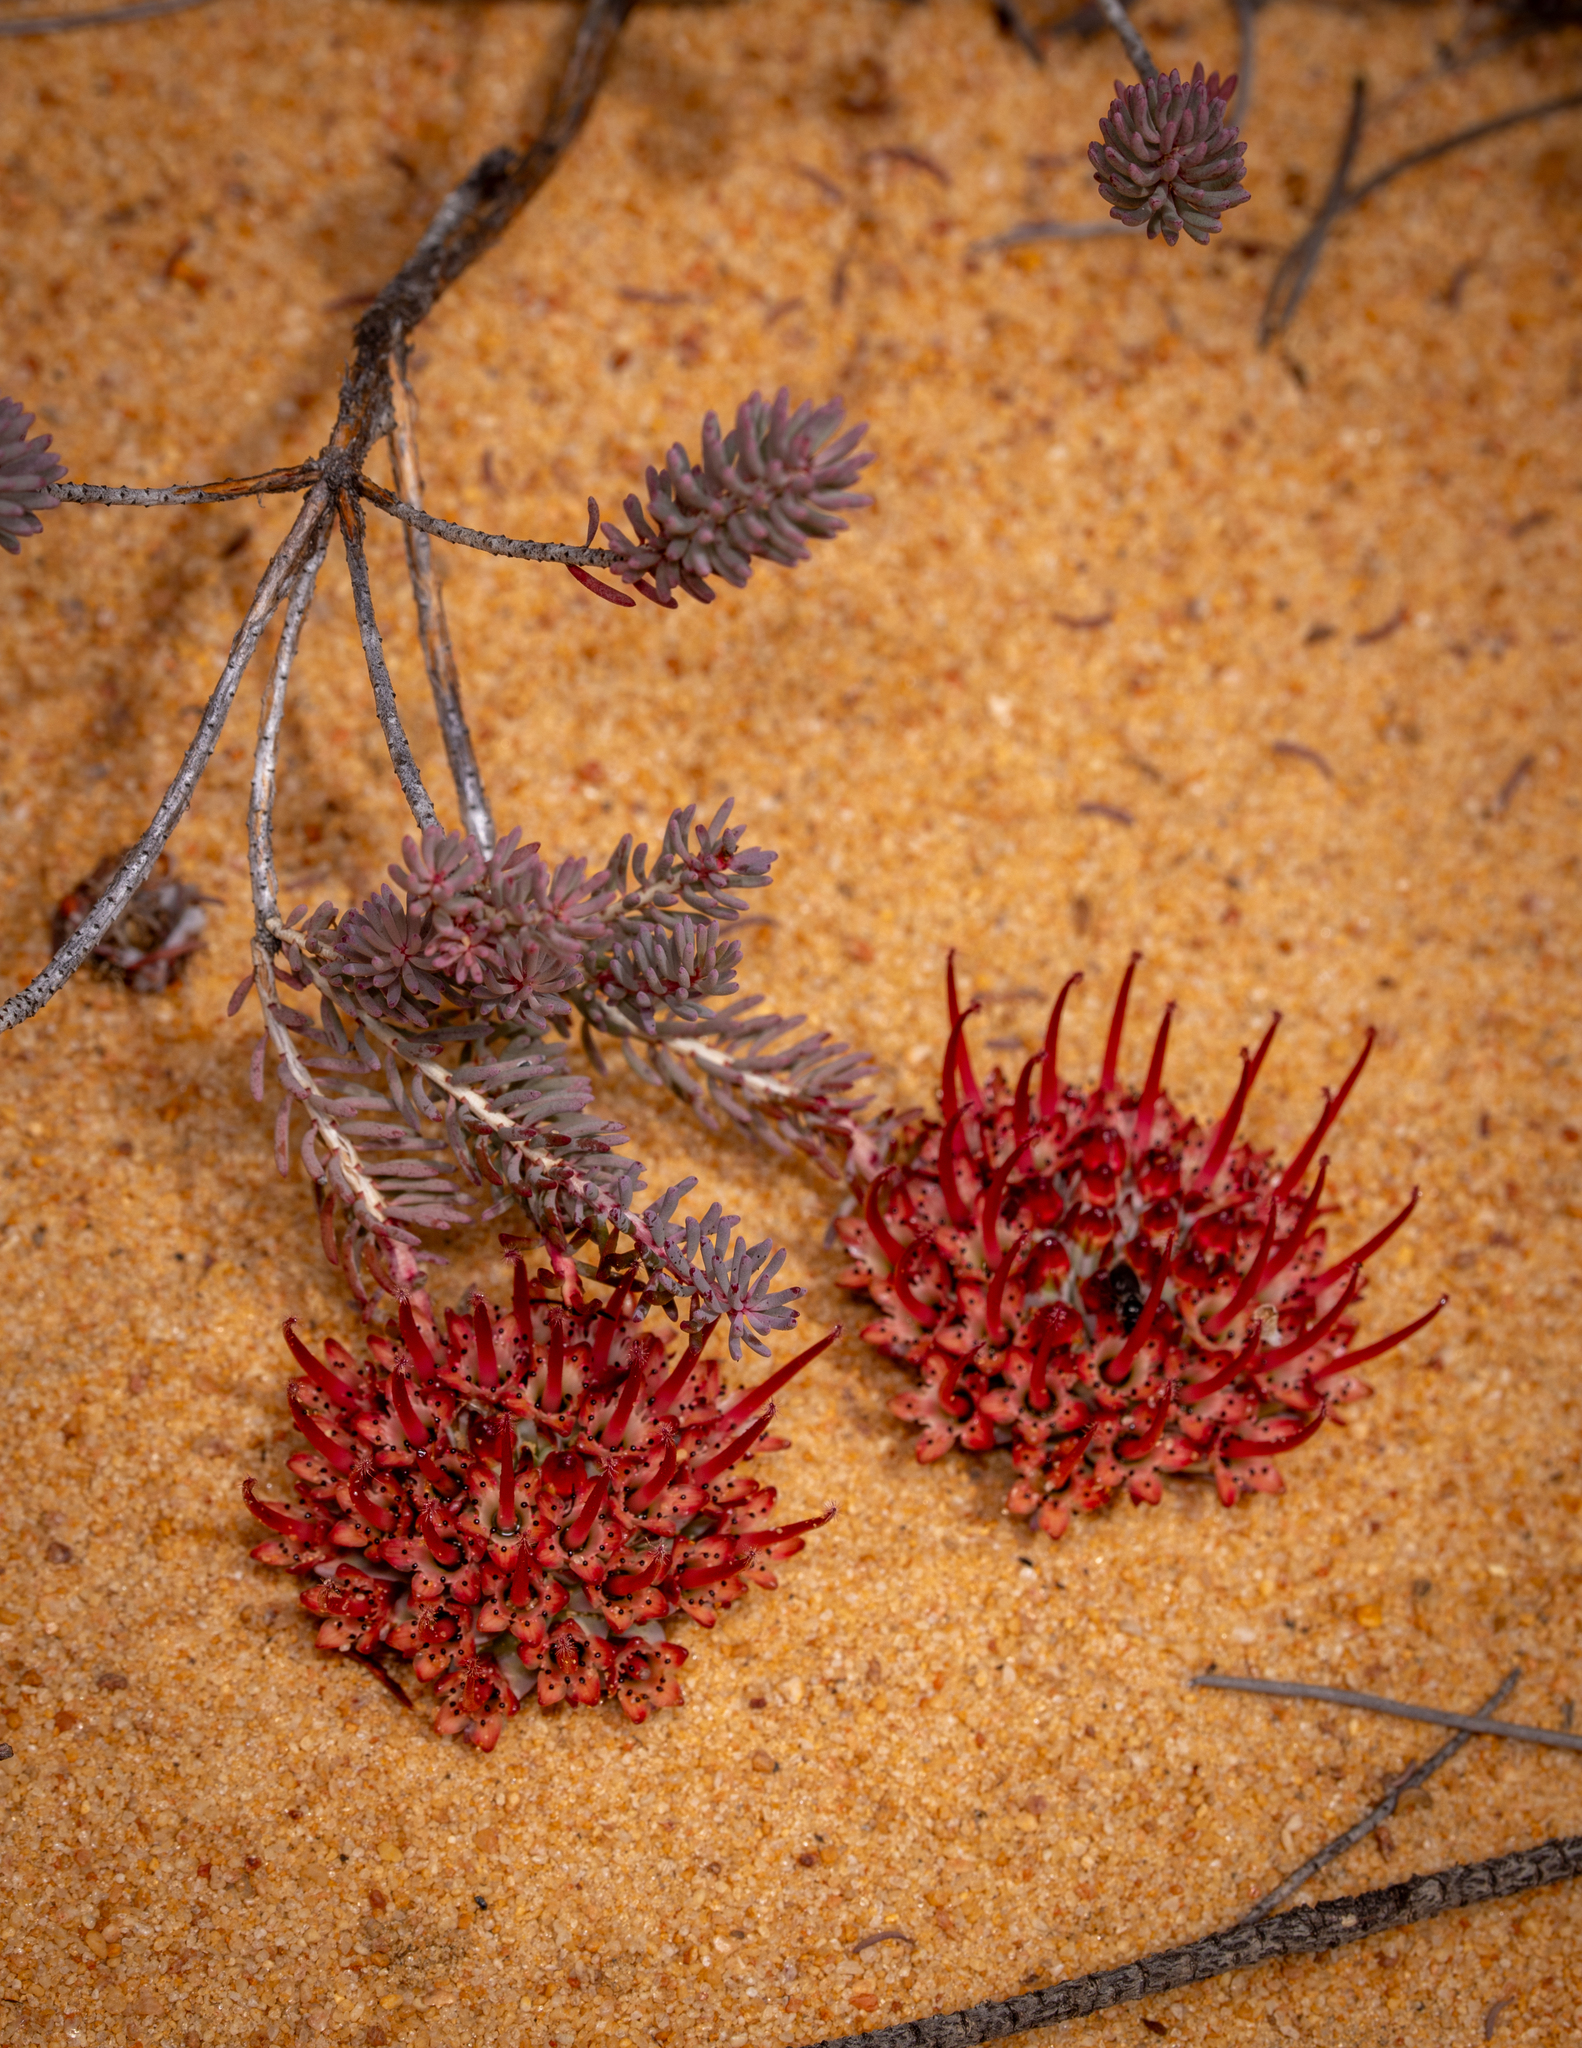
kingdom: Plantae
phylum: Tracheophyta
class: Magnoliopsida
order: Myrtales
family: Myrtaceae
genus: Darwinia
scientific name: Darwinia virescens
